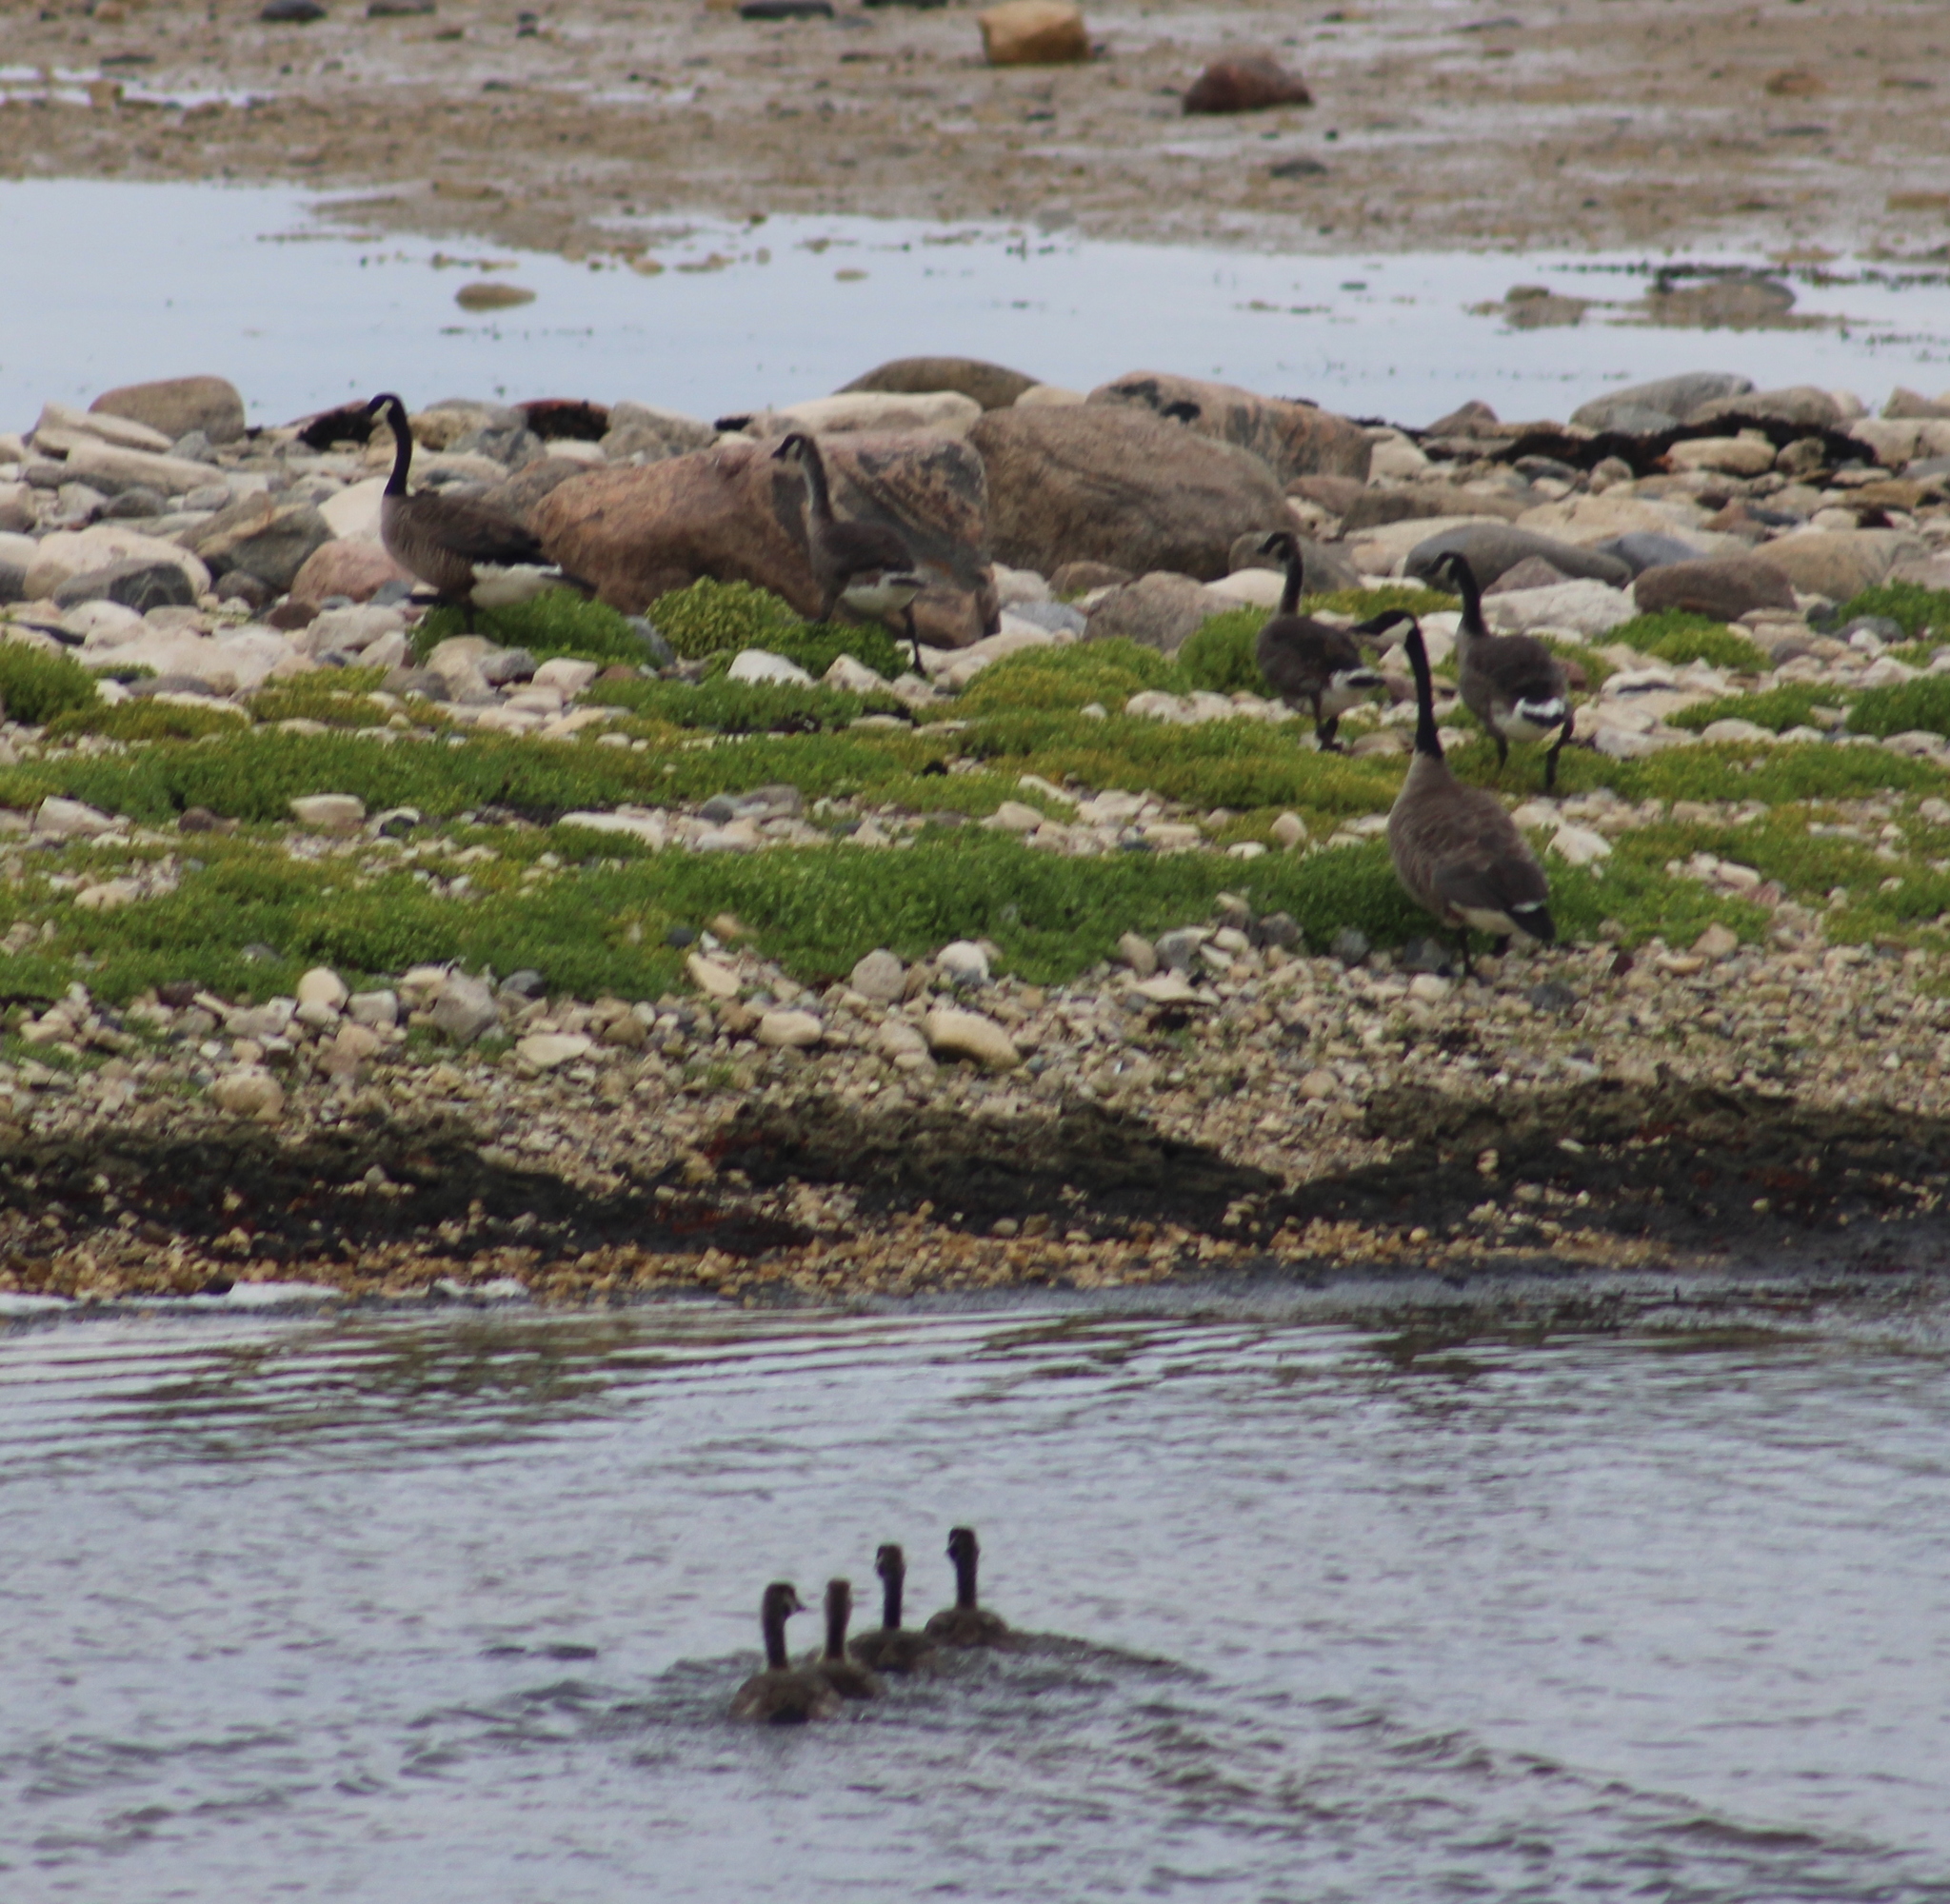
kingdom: Animalia
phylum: Chordata
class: Aves
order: Anseriformes
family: Anatidae
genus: Branta
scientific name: Branta canadensis
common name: Canada goose
